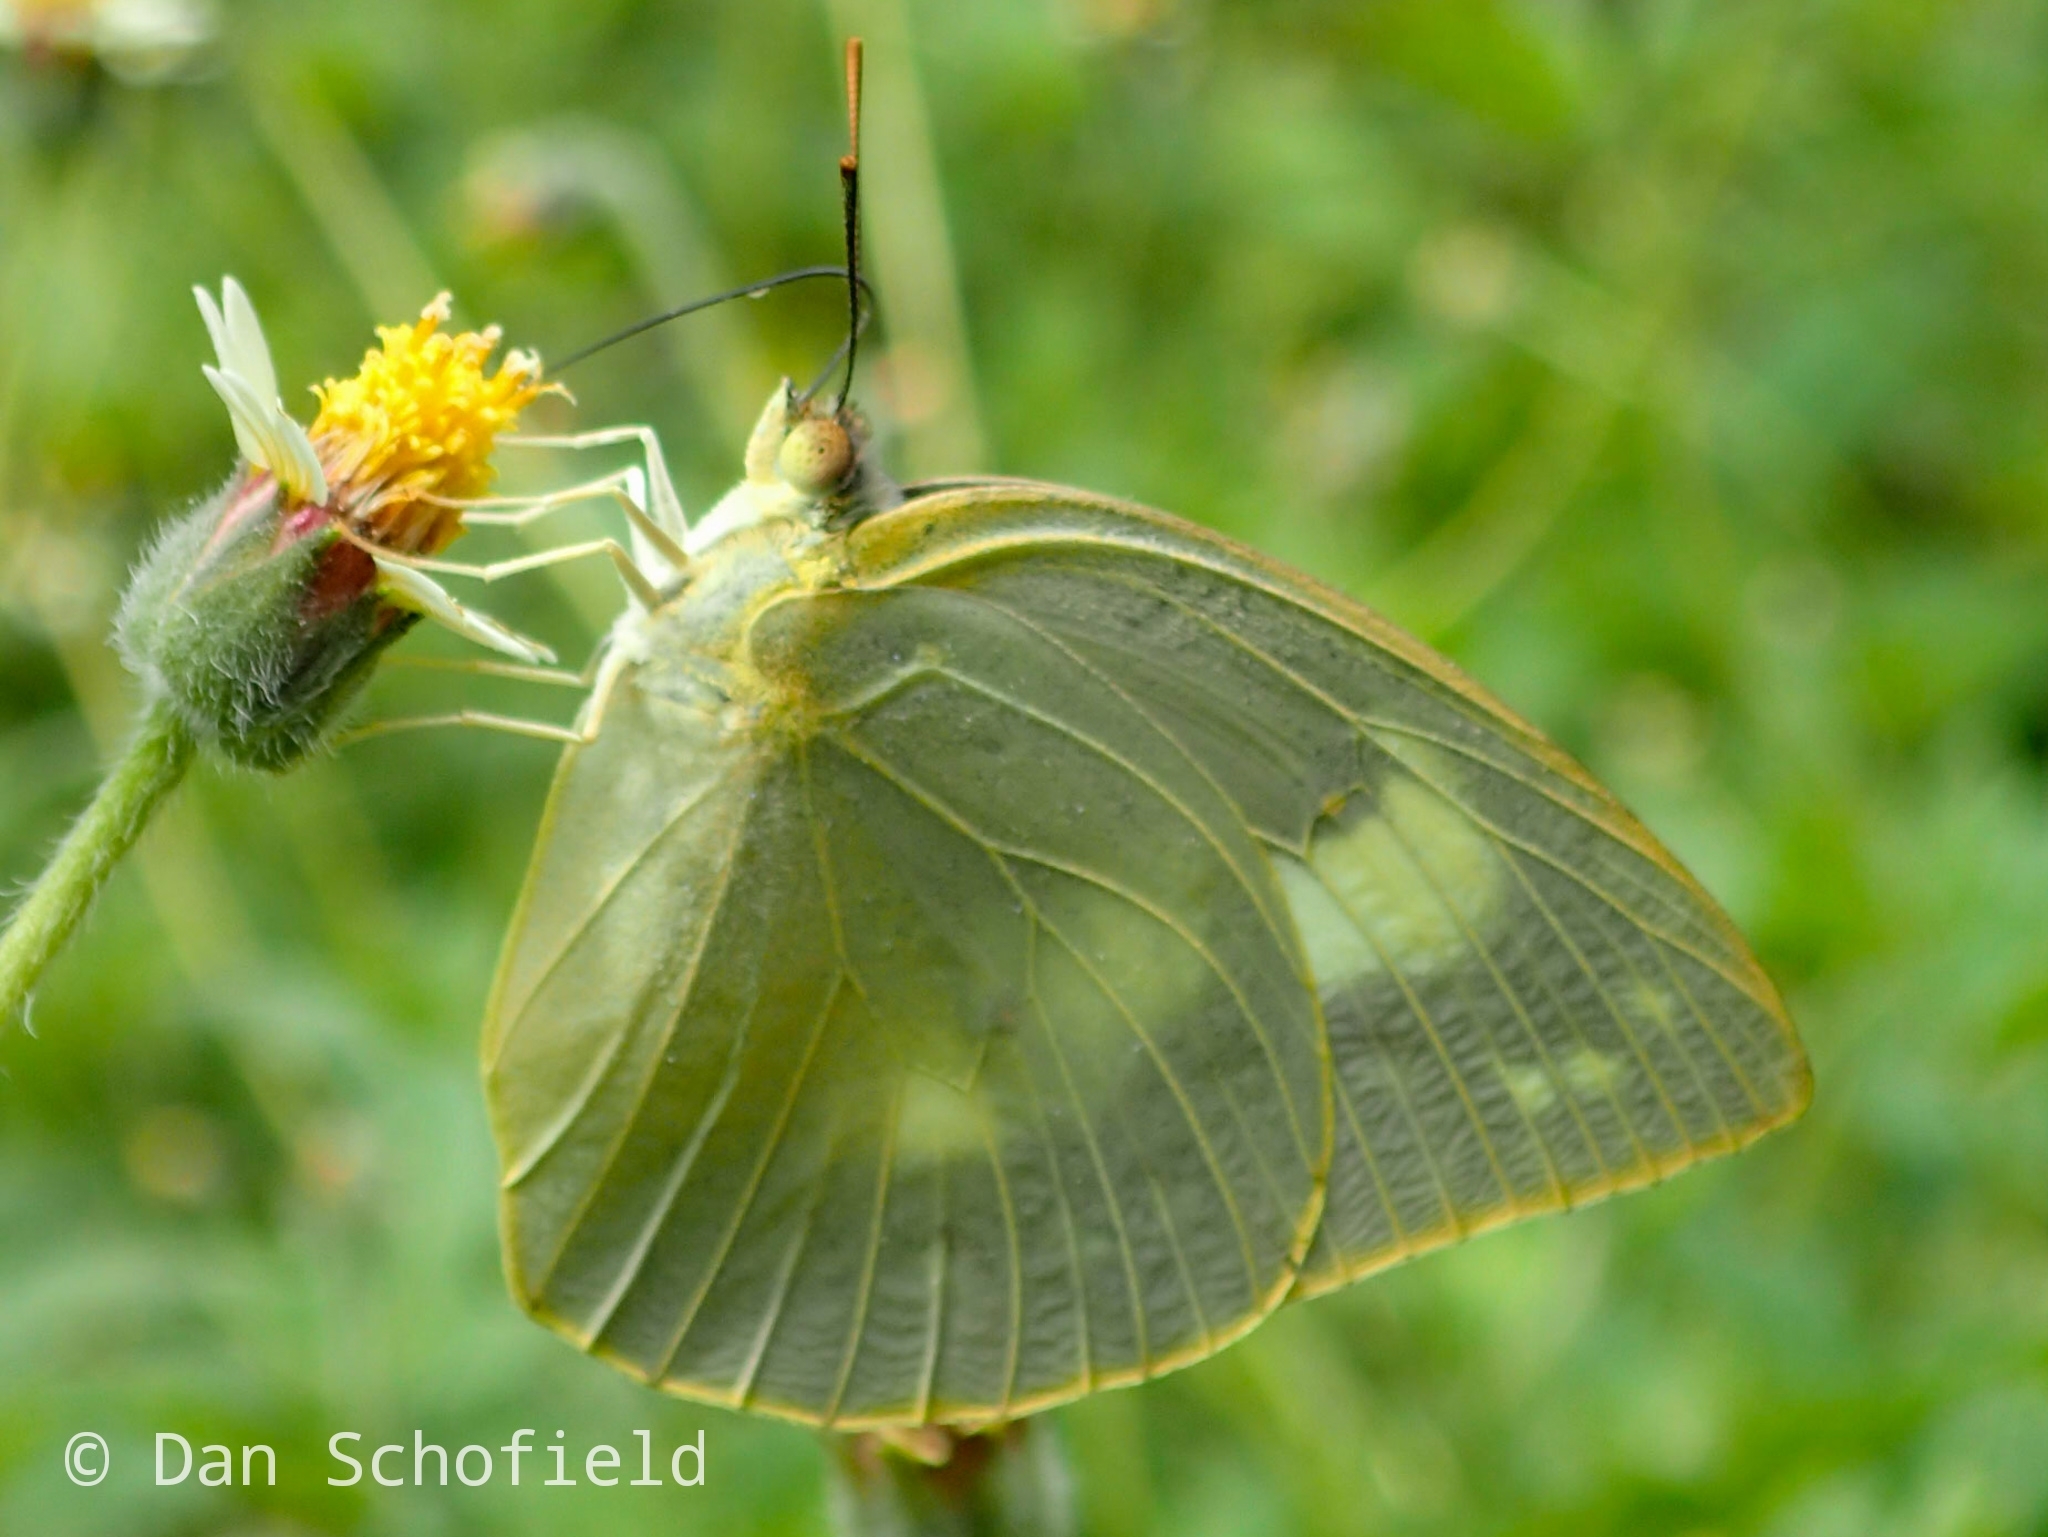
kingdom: Animalia
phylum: Arthropoda
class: Insecta
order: Lepidoptera
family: Pieridae
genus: Catopsilia
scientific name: Catopsilia pomona
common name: Common emigrant
